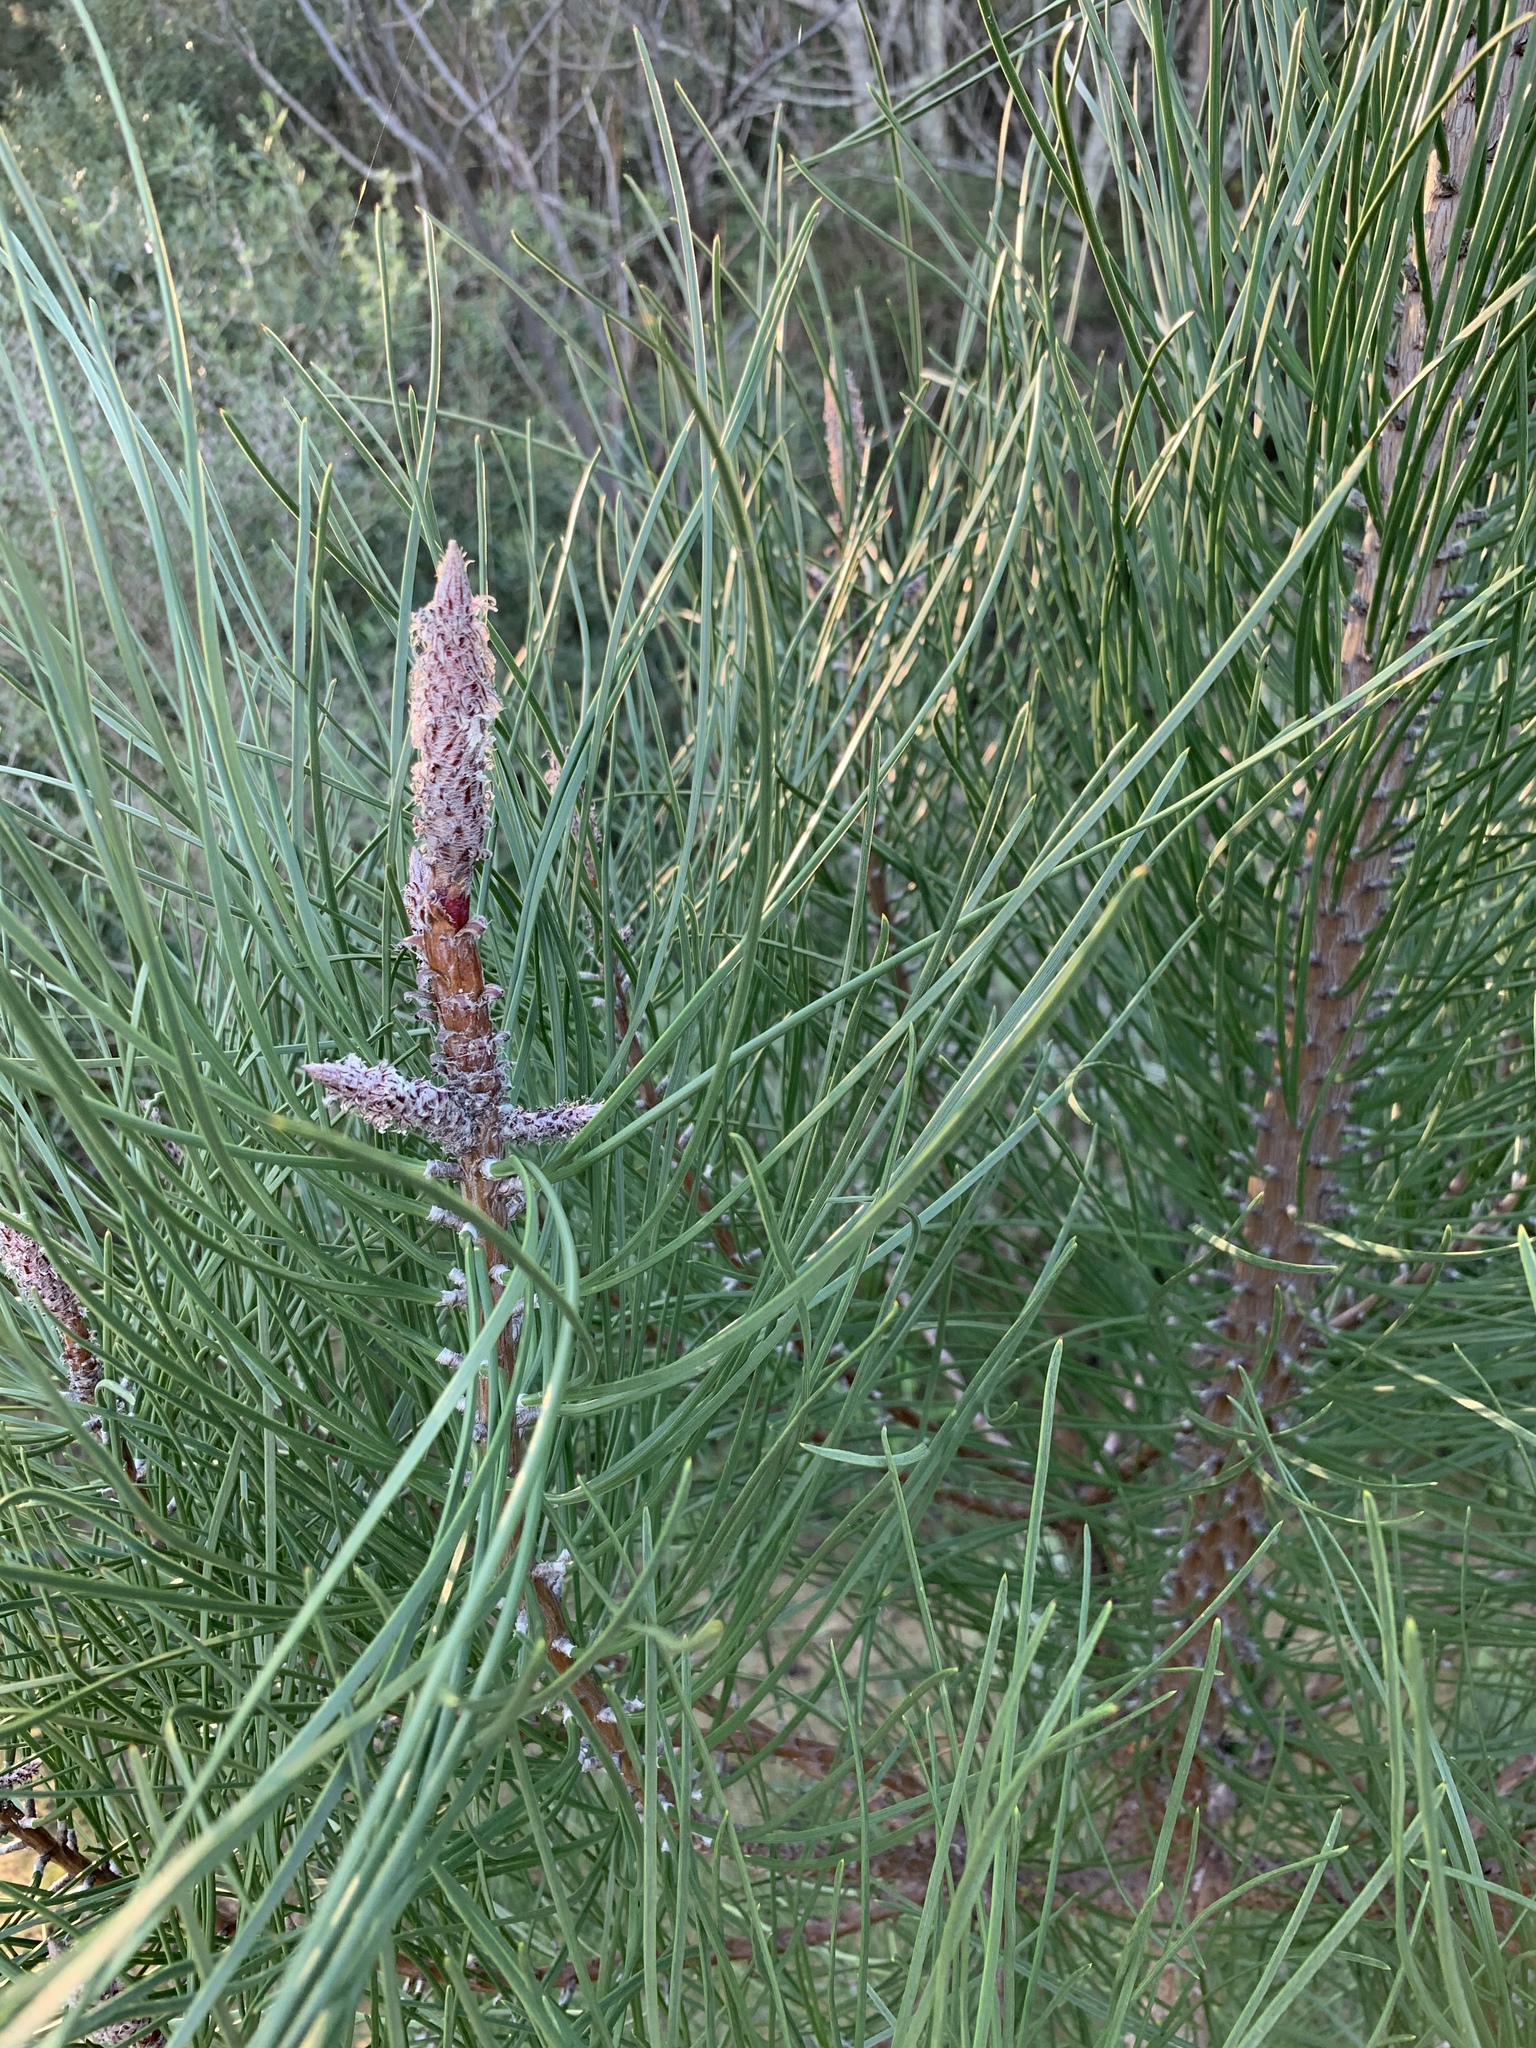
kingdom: Plantae
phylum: Tracheophyta
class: Pinopsida
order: Pinales
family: Pinaceae
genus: Pinus
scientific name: Pinus pinaster
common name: Maritime pine
